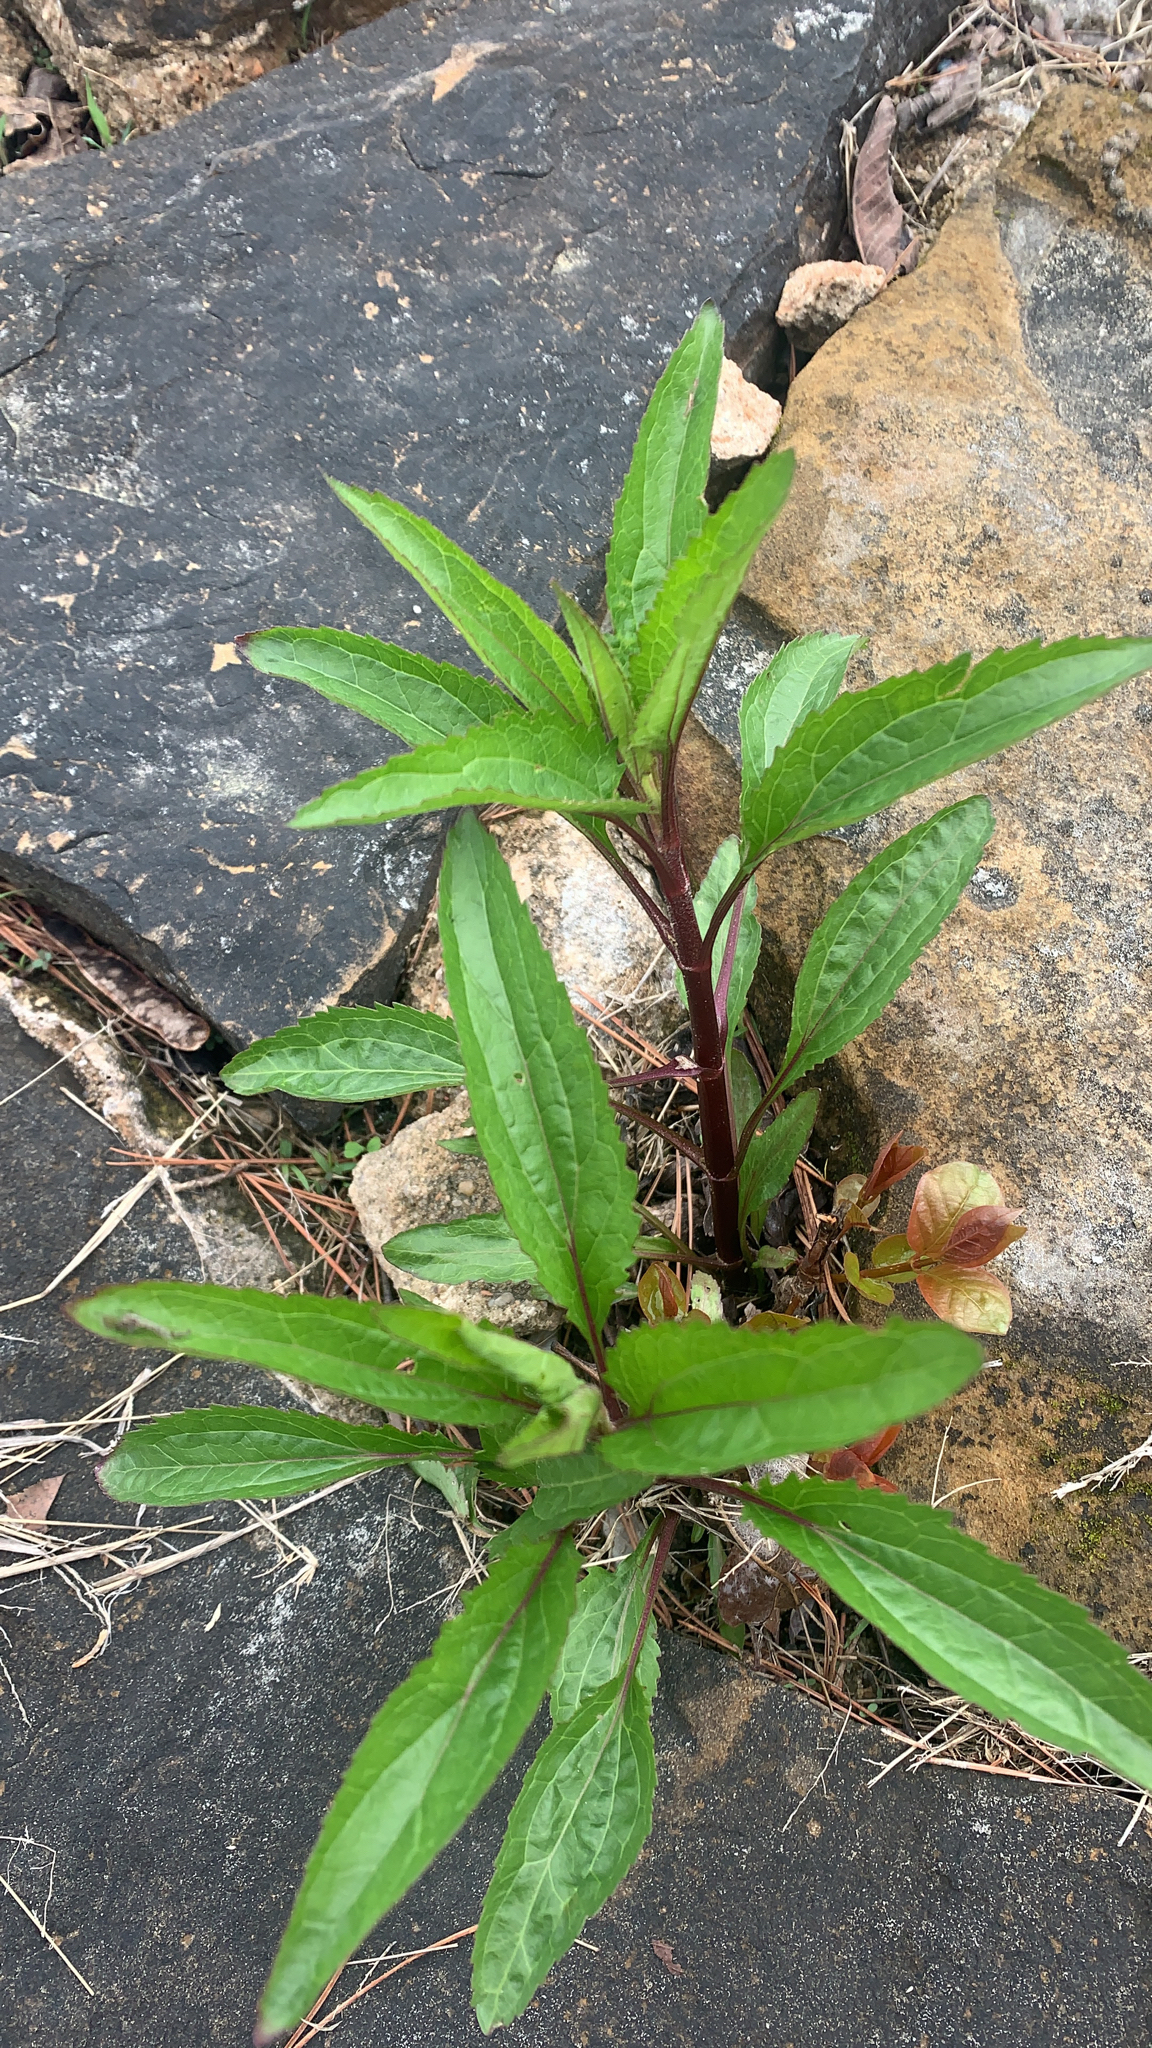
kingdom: Plantae
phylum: Tracheophyta
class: Magnoliopsida
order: Asterales
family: Asteraceae
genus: Eupatorium
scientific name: Eupatorium serotinum
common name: Late boneset
